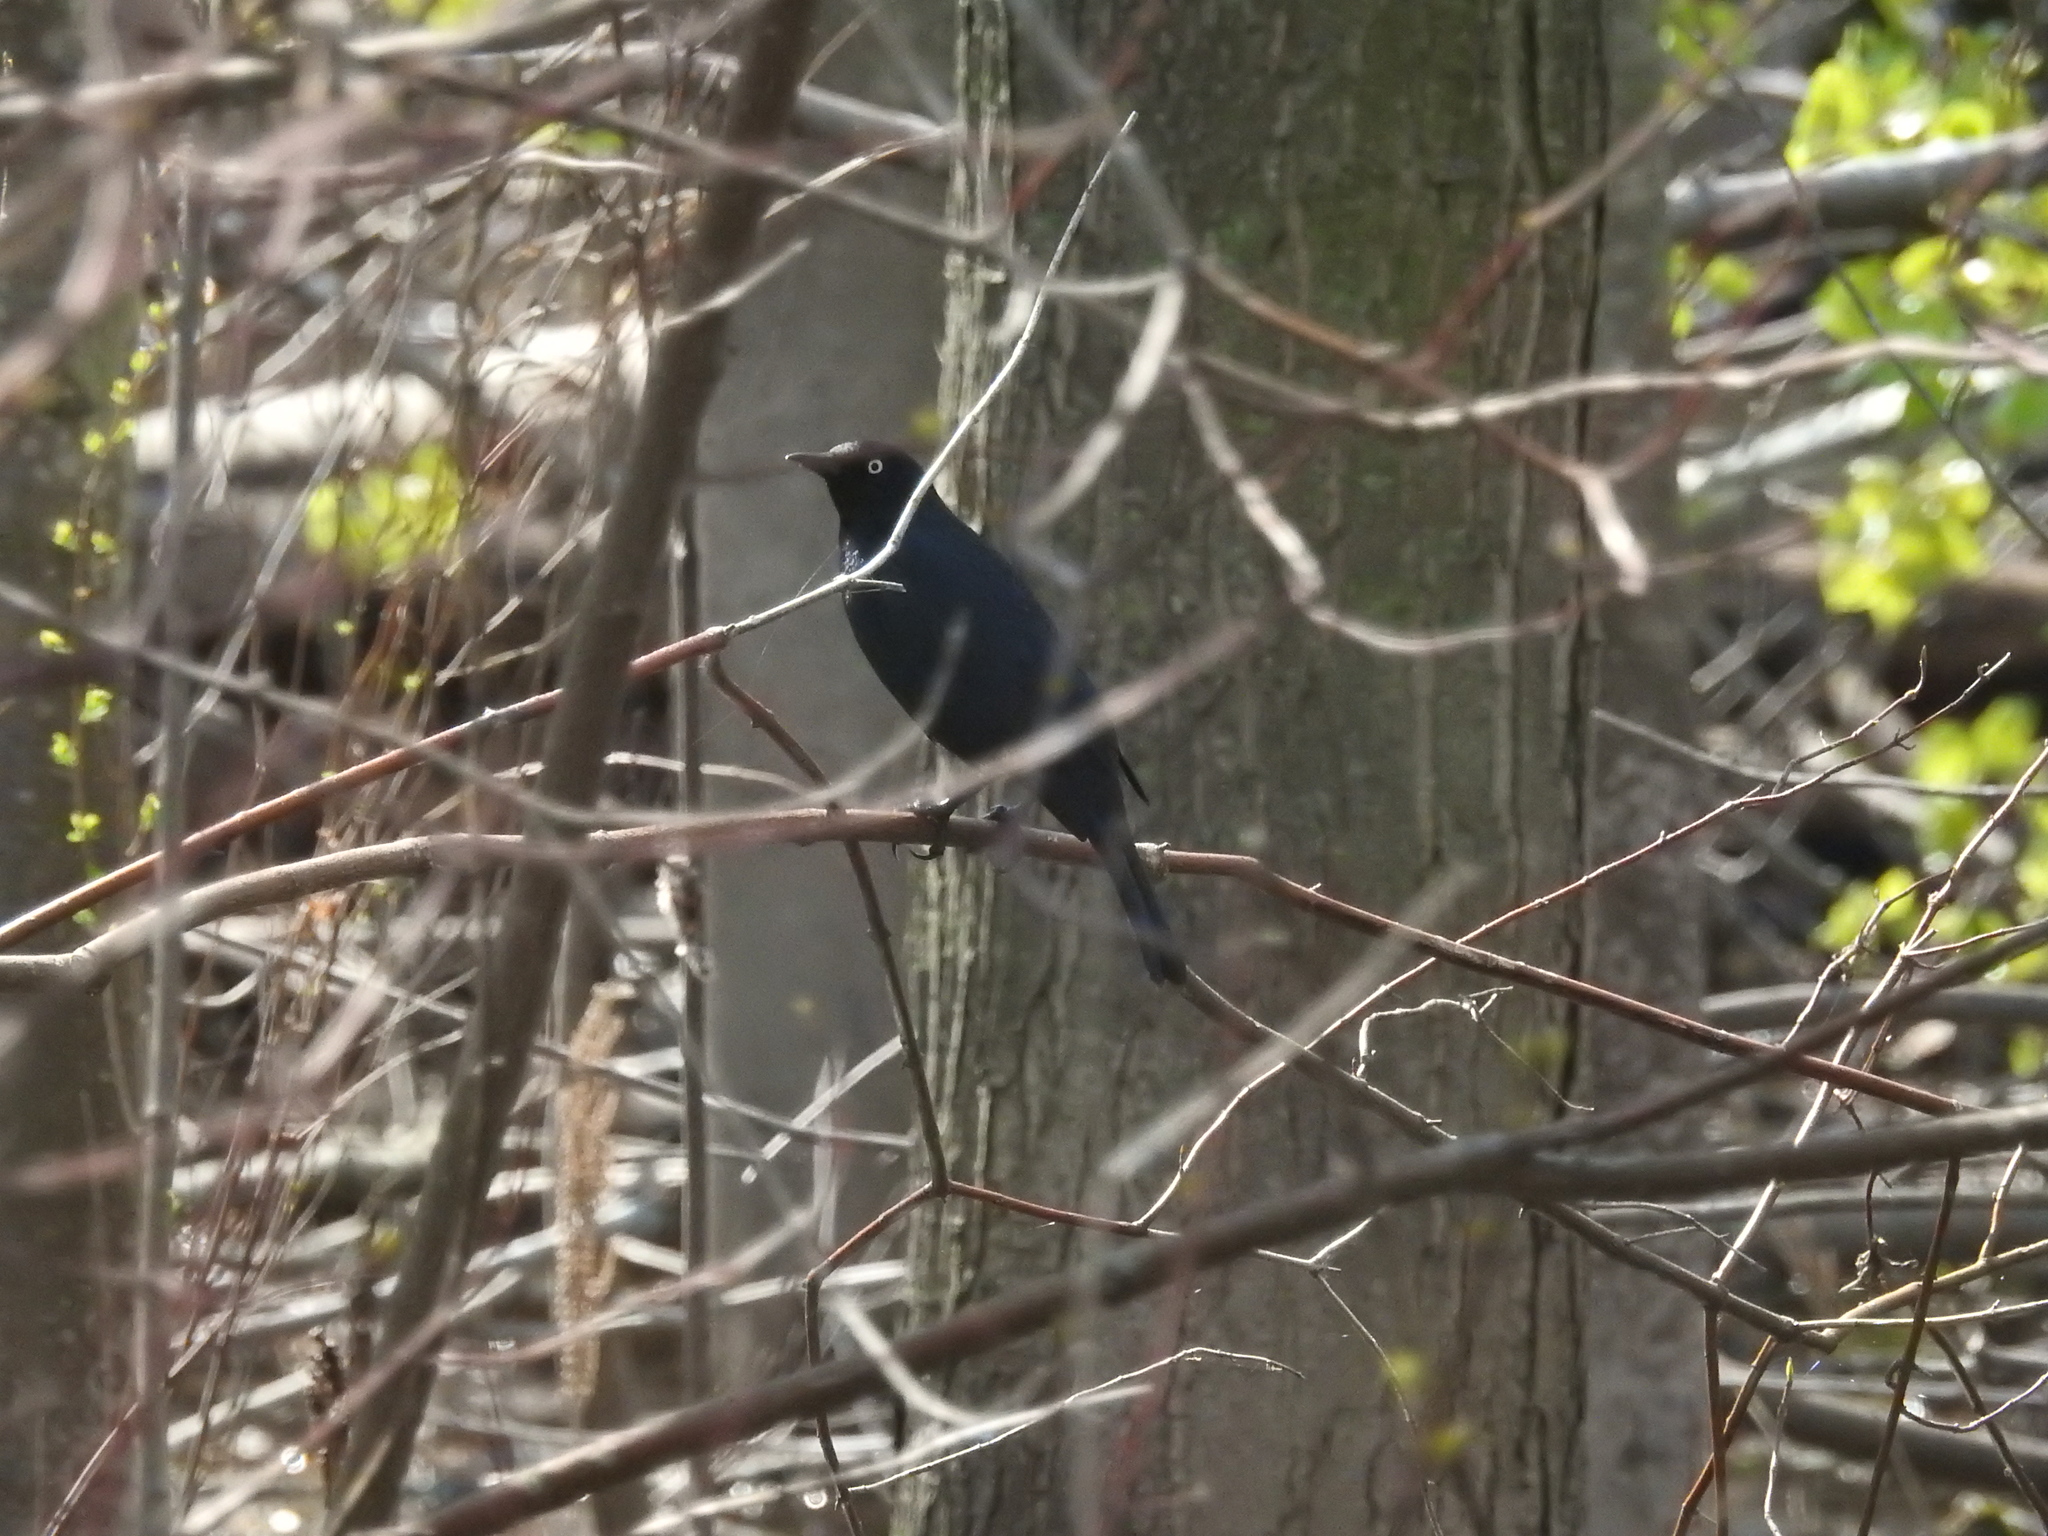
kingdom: Animalia
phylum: Chordata
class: Aves
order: Passeriformes
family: Icteridae
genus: Euphagus
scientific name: Euphagus carolinus
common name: Rusty blackbird
